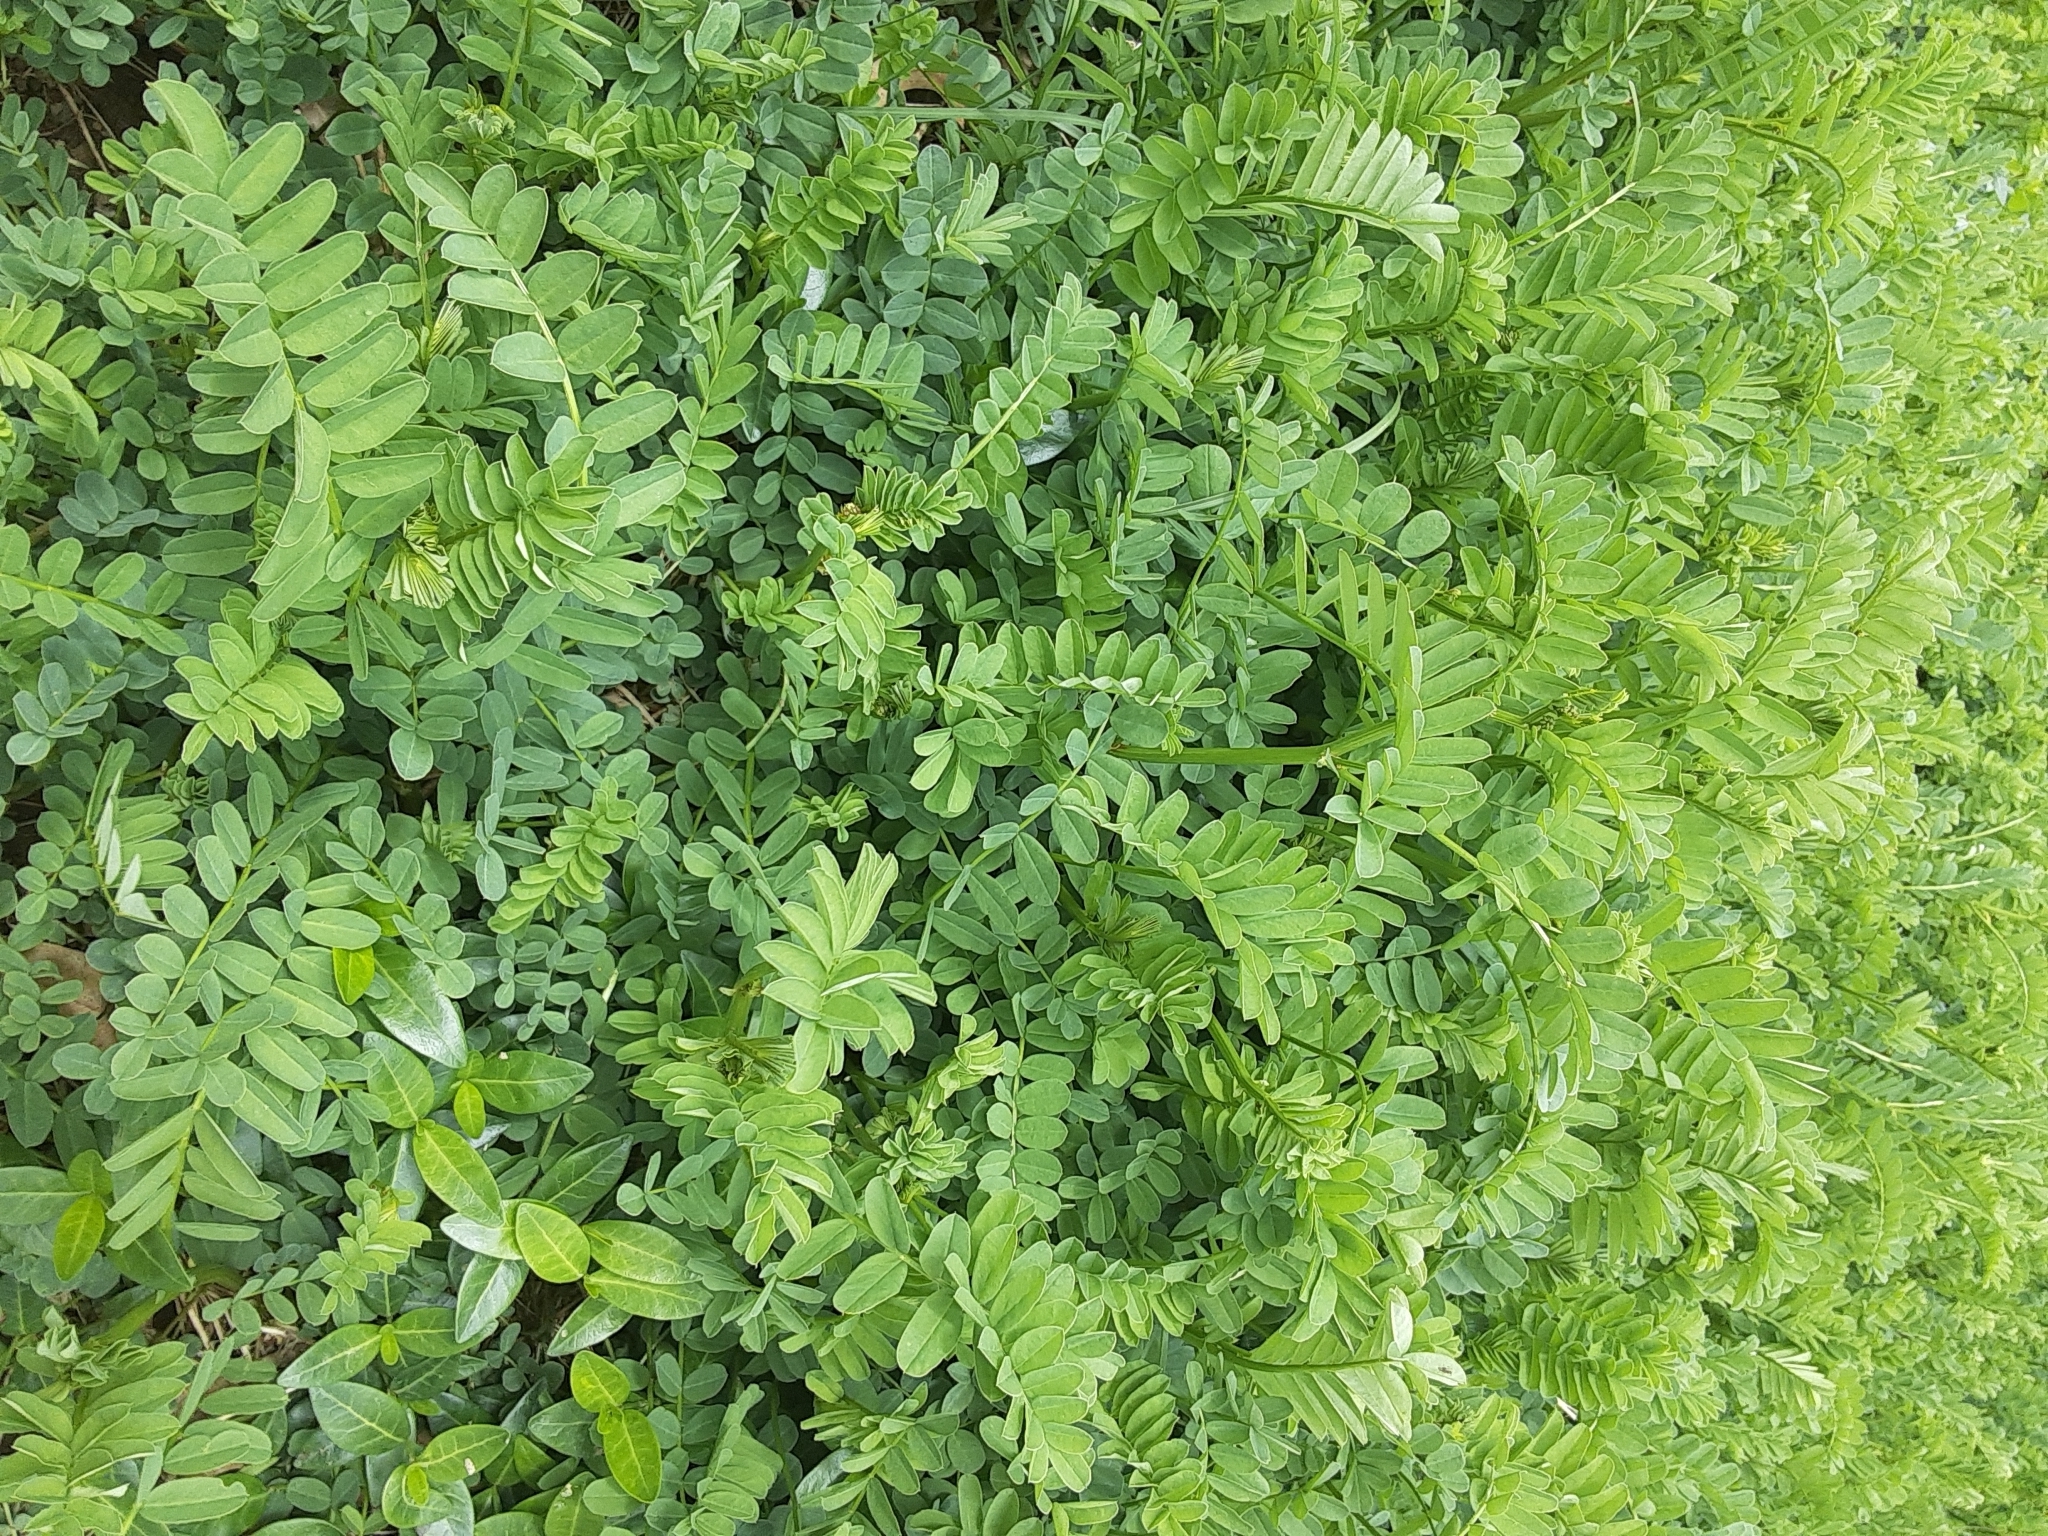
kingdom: Plantae
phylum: Tracheophyta
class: Magnoliopsida
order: Fabales
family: Fabaceae
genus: Coronilla
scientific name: Coronilla varia
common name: Crownvetch
